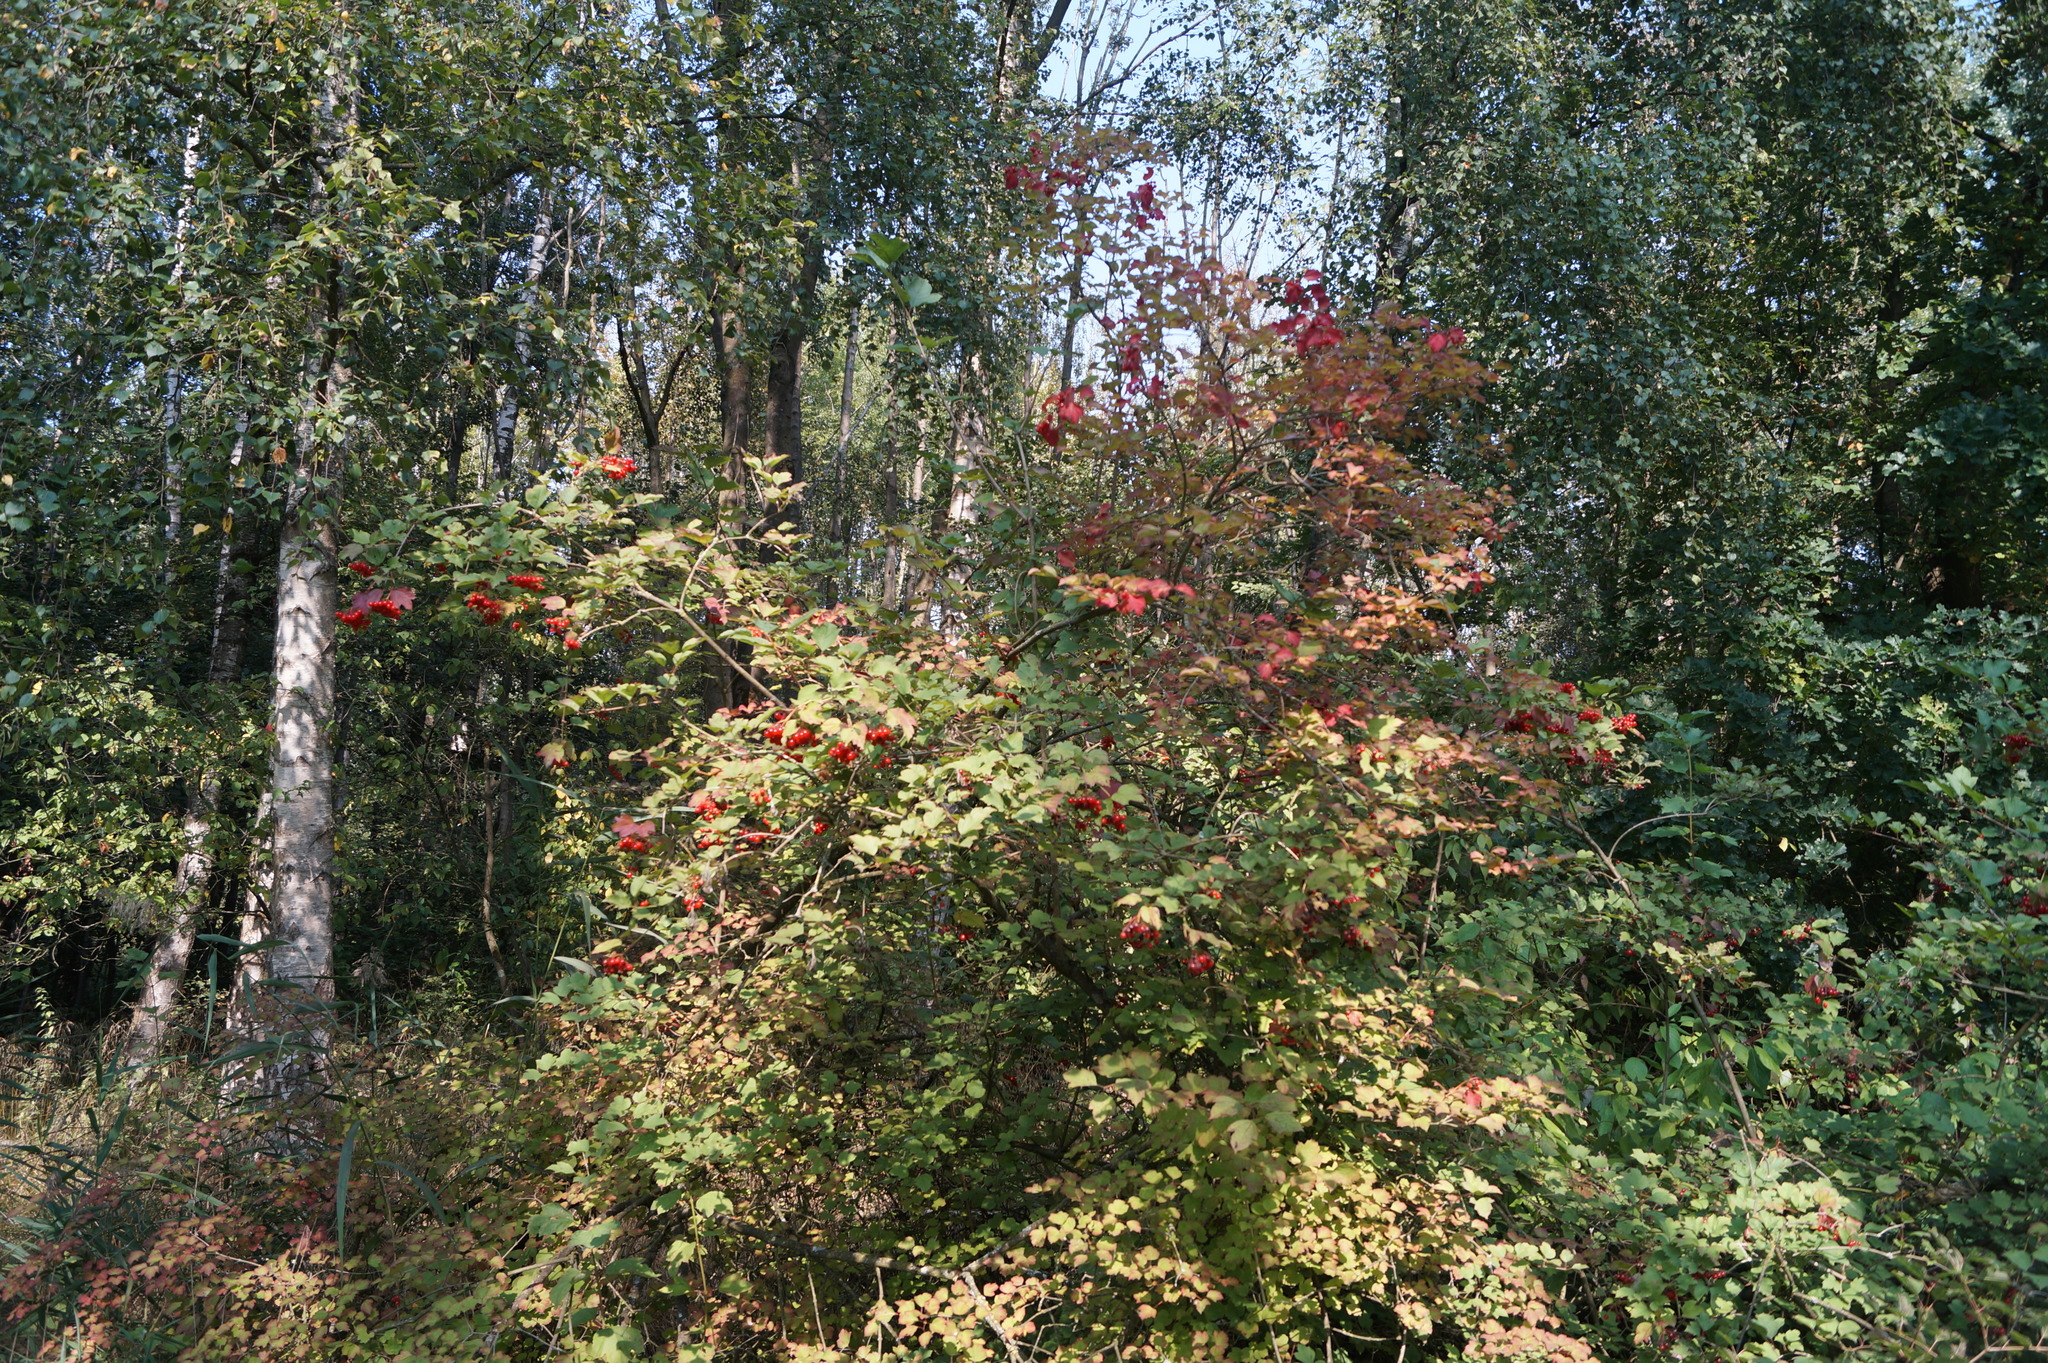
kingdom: Plantae
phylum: Tracheophyta
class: Magnoliopsida
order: Dipsacales
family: Viburnaceae
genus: Viburnum
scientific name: Viburnum opulus
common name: Guelder-rose
